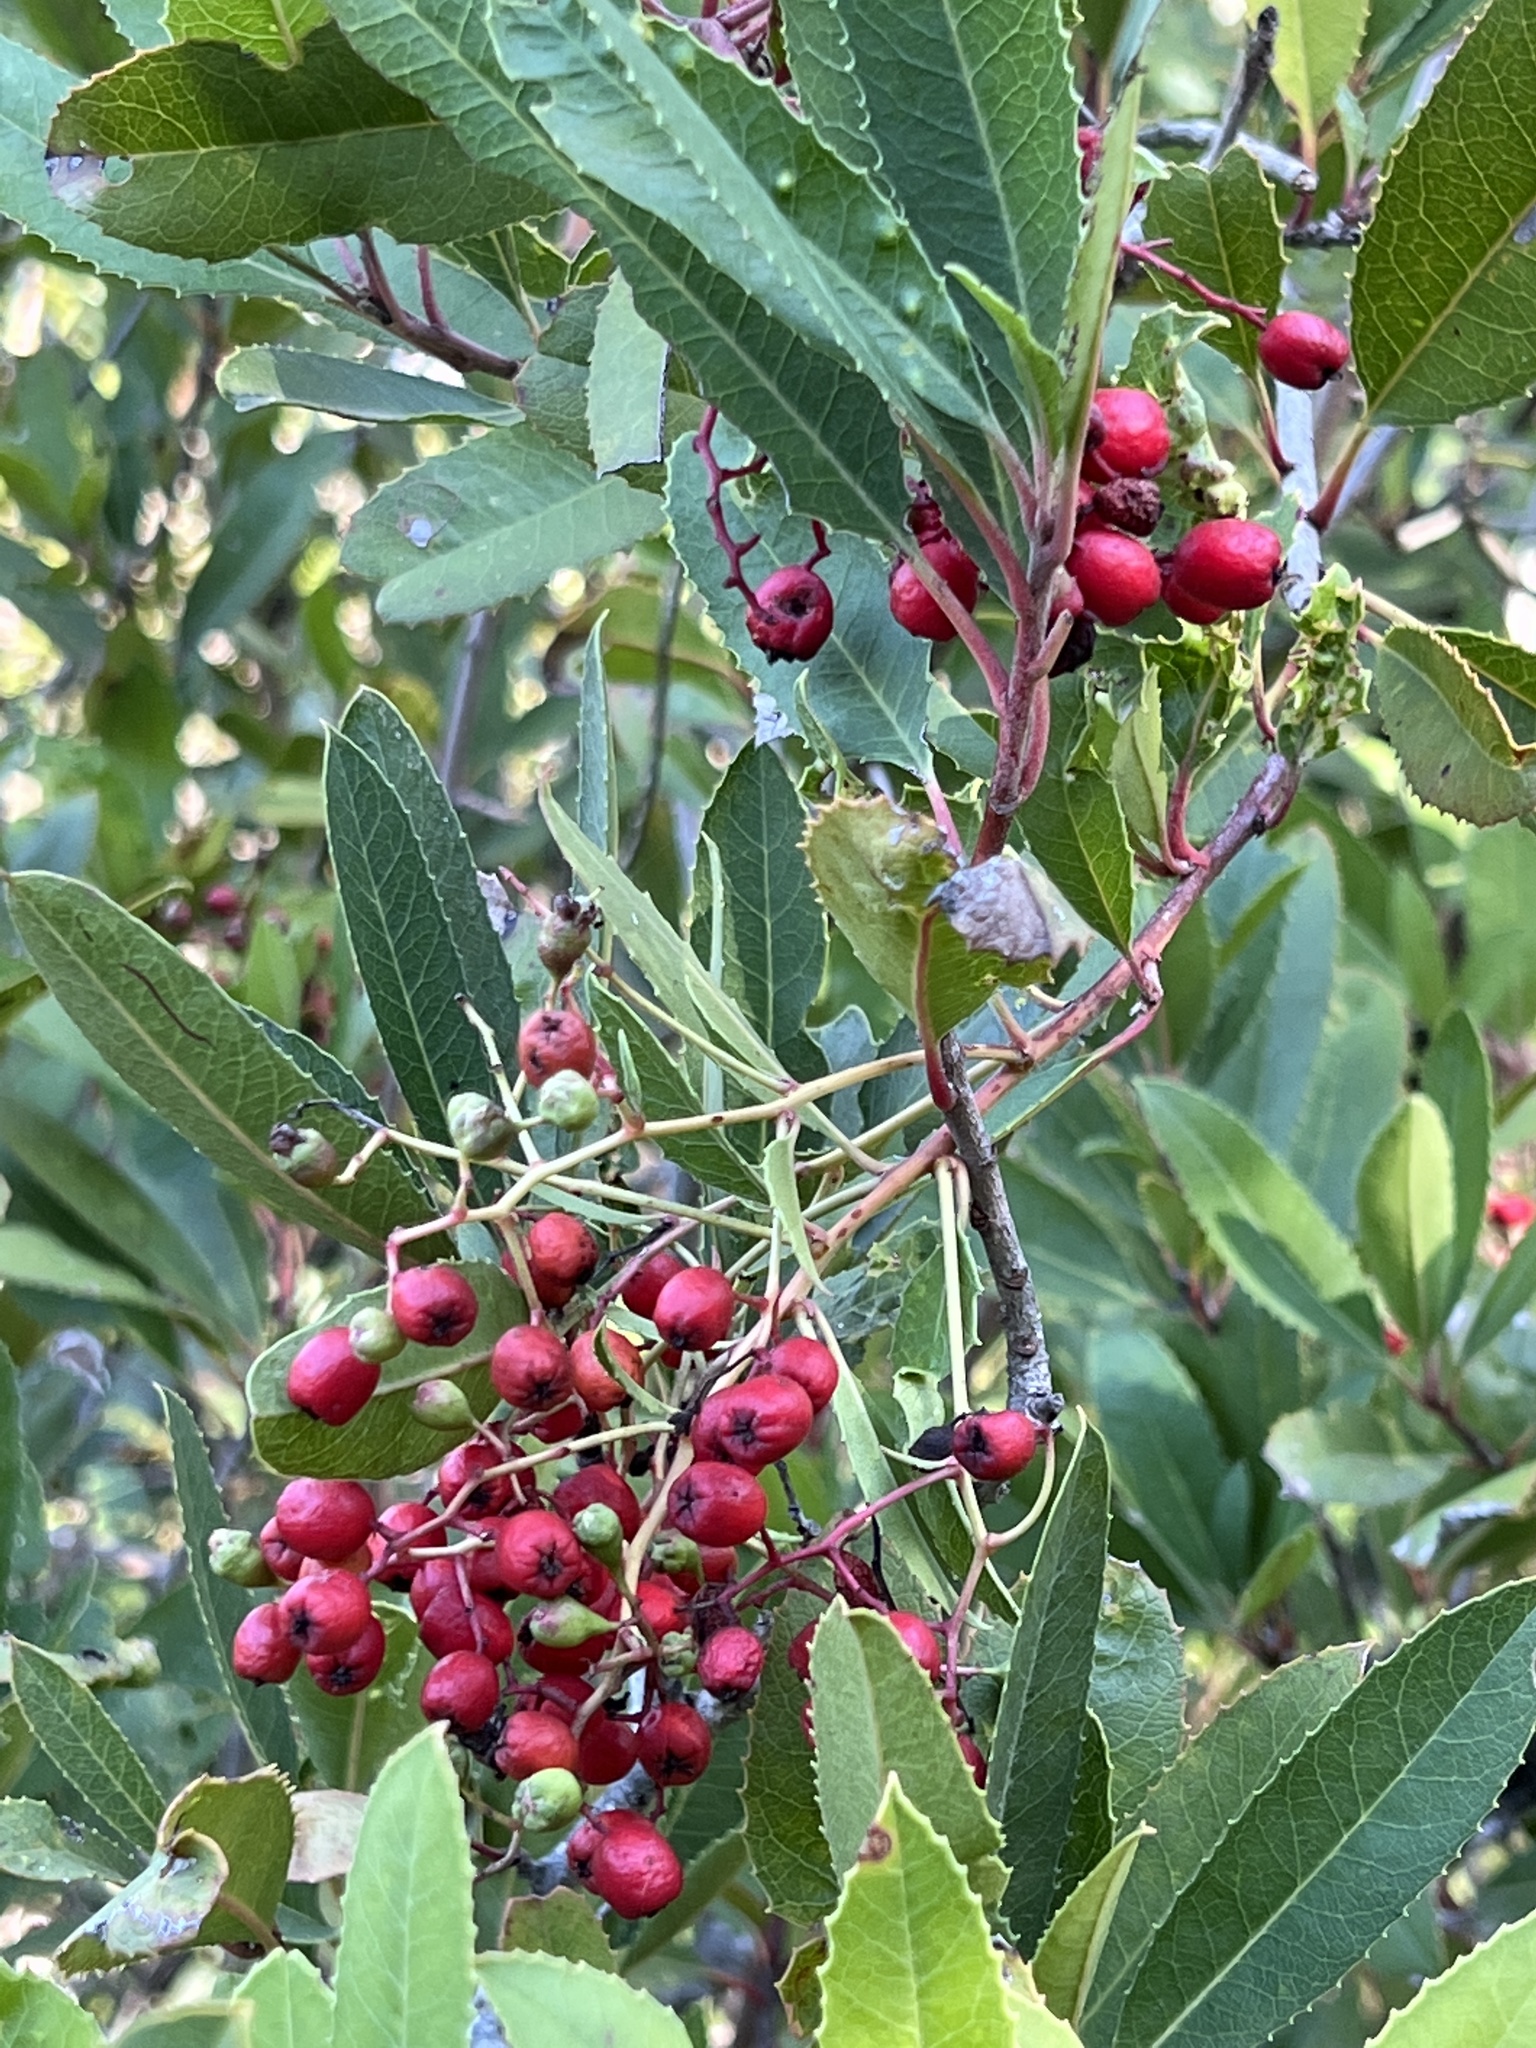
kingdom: Plantae
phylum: Tracheophyta
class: Magnoliopsida
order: Rosales
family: Rosaceae
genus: Heteromeles
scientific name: Heteromeles arbutifolia
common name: California-holly
